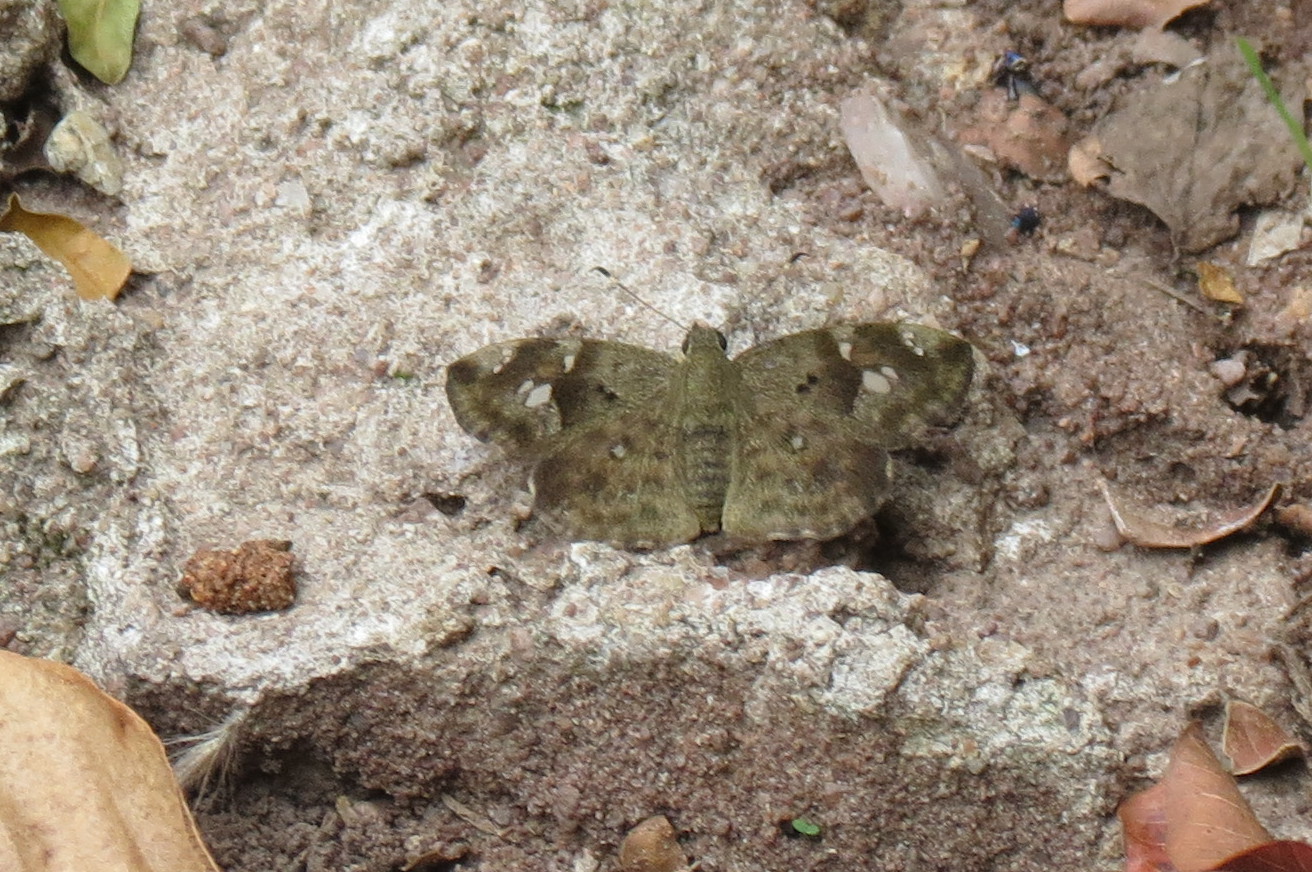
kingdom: Animalia
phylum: Arthropoda
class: Insecta
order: Lepidoptera
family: Hesperiidae
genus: Sarangesa
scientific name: Sarangesa motozi
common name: Forest elfin
